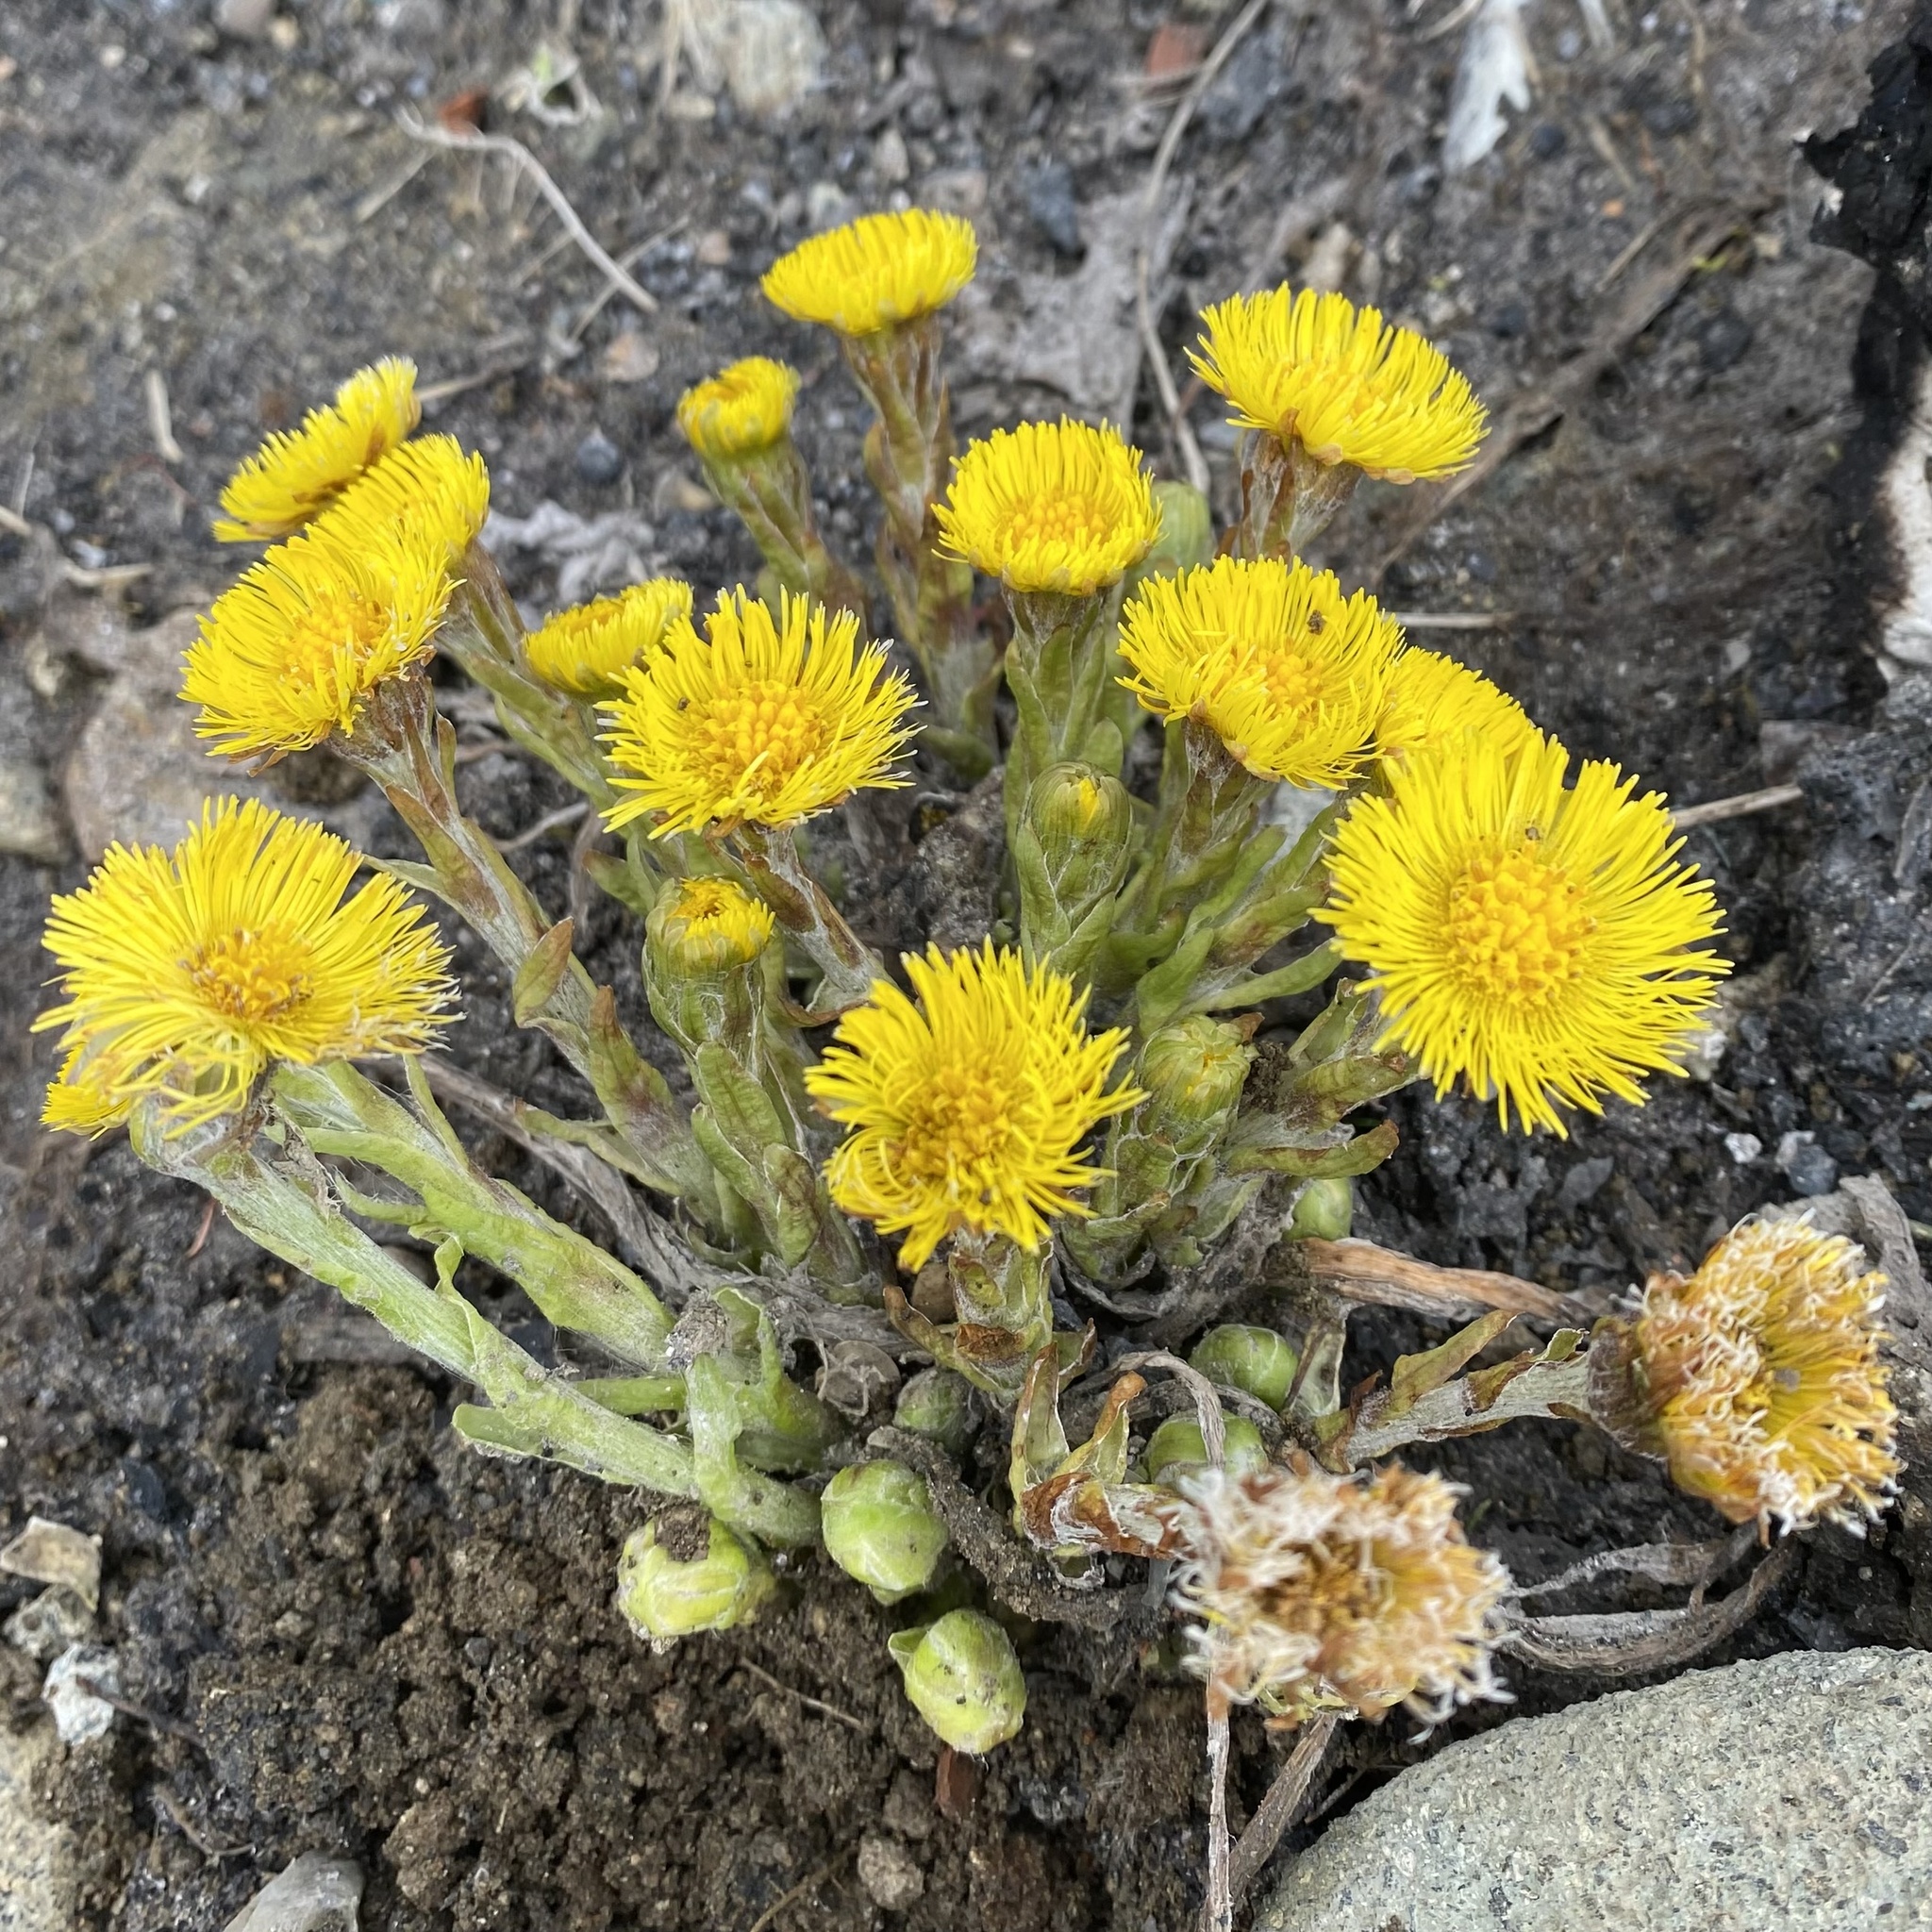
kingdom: Plantae
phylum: Tracheophyta
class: Magnoliopsida
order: Asterales
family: Asteraceae
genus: Tussilago
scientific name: Tussilago farfara
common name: Coltsfoot
